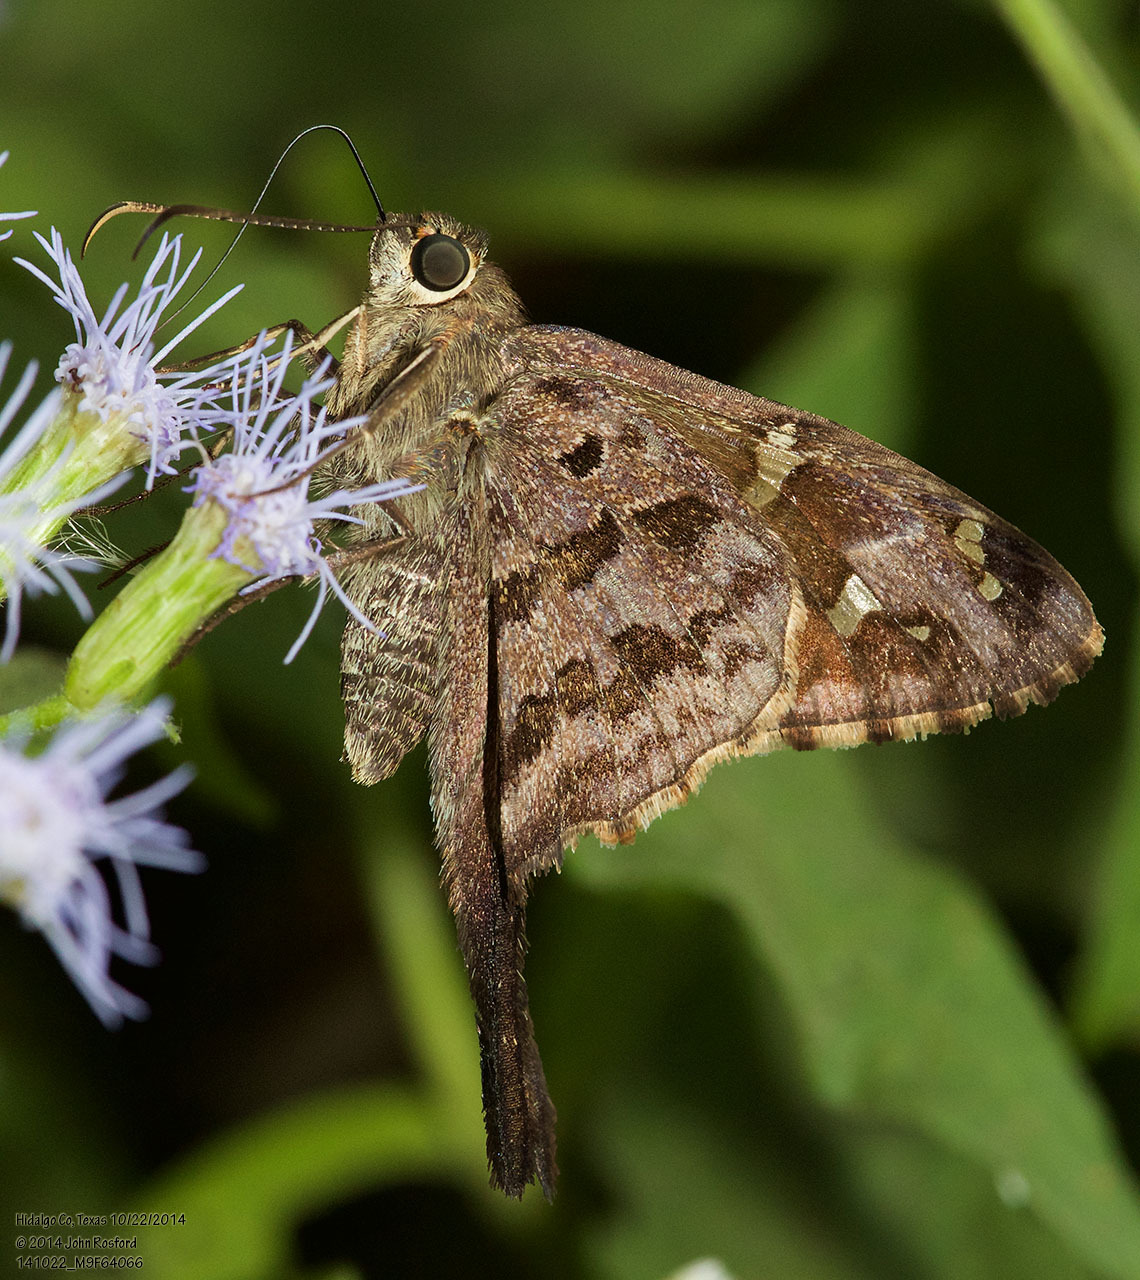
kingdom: Animalia
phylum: Arthropoda
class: Insecta
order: Lepidoptera
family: Hesperiidae
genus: Thorybes
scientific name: Thorybes
